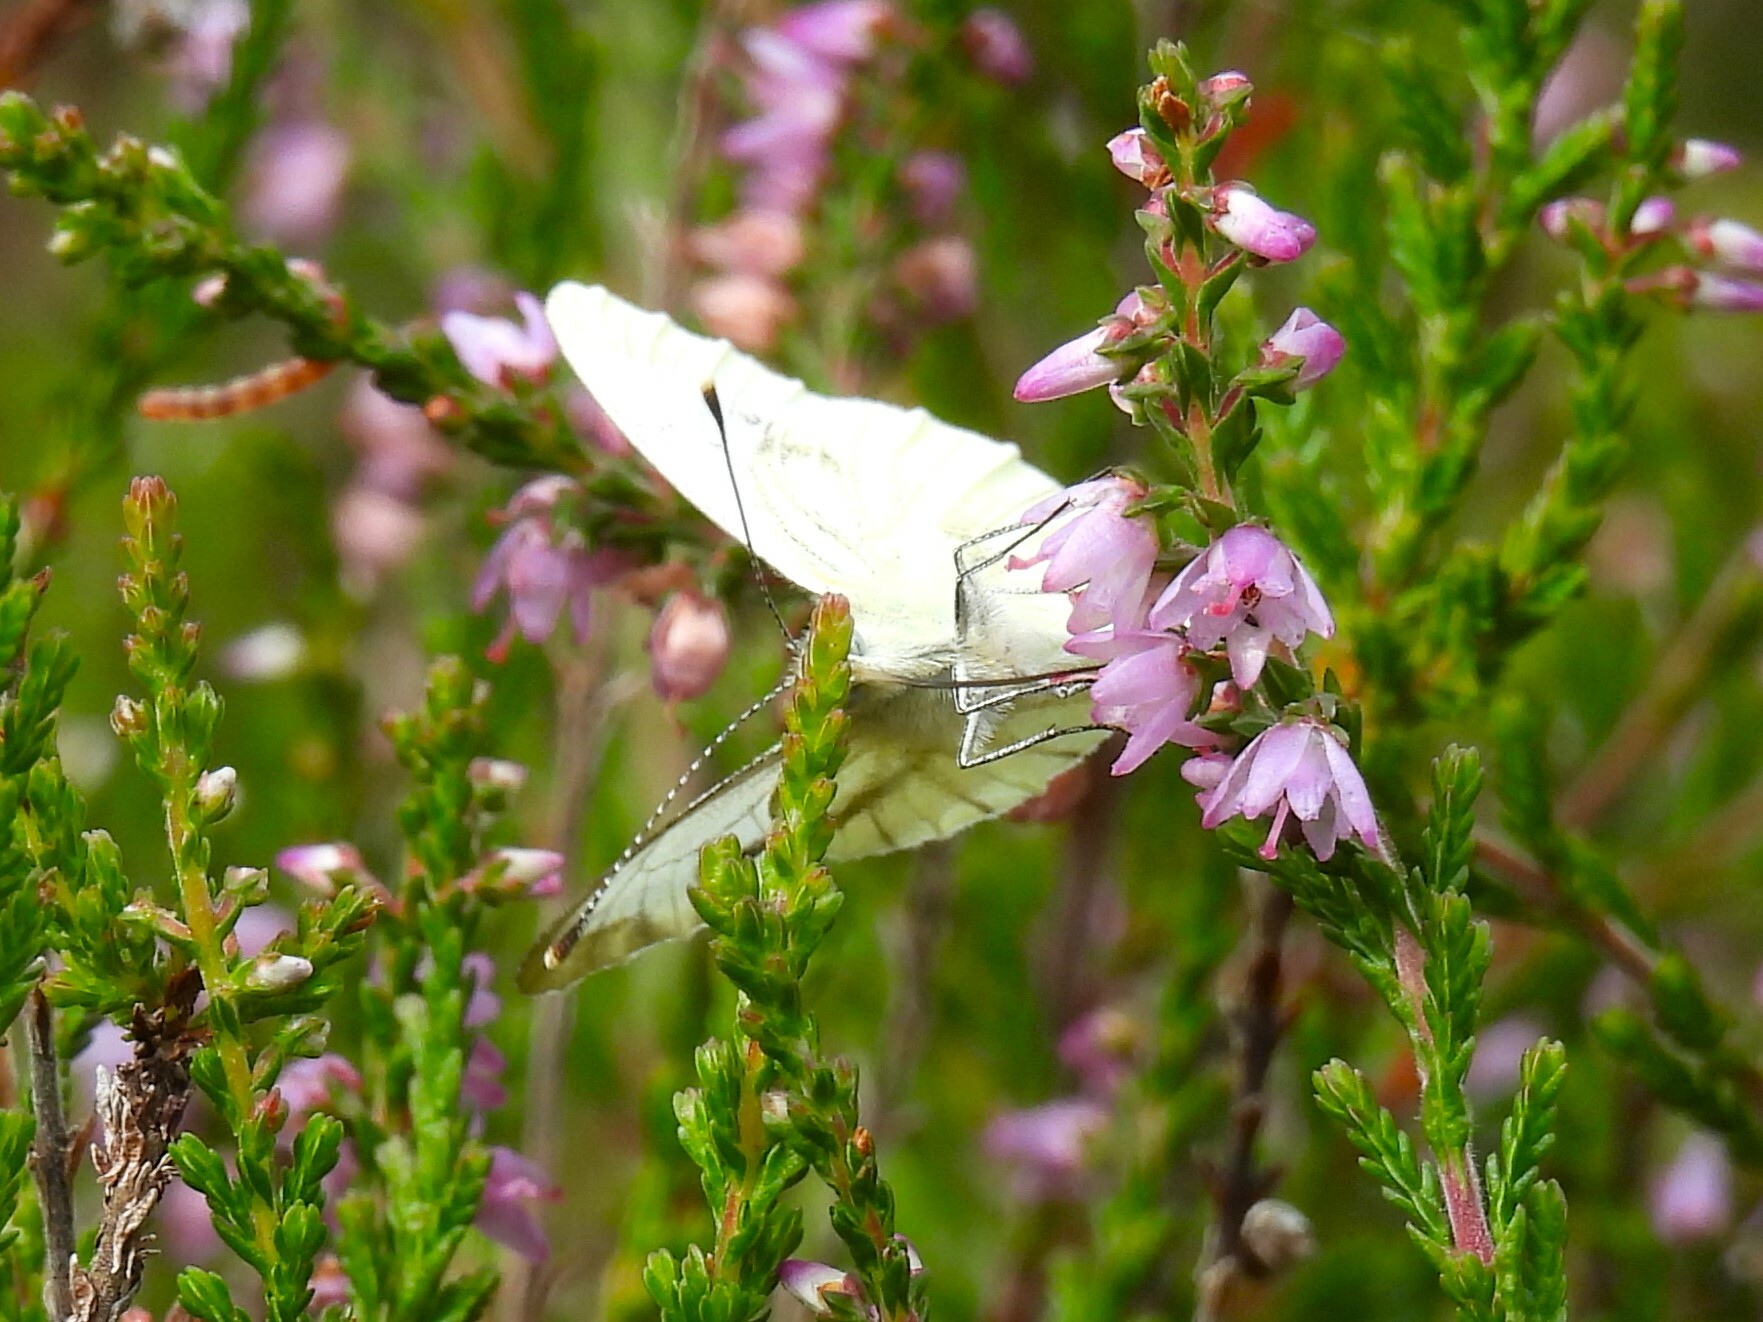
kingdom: Animalia
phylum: Arthropoda
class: Insecta
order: Lepidoptera
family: Pieridae
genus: Pieris
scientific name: Pieris napi
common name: Green-veined white
